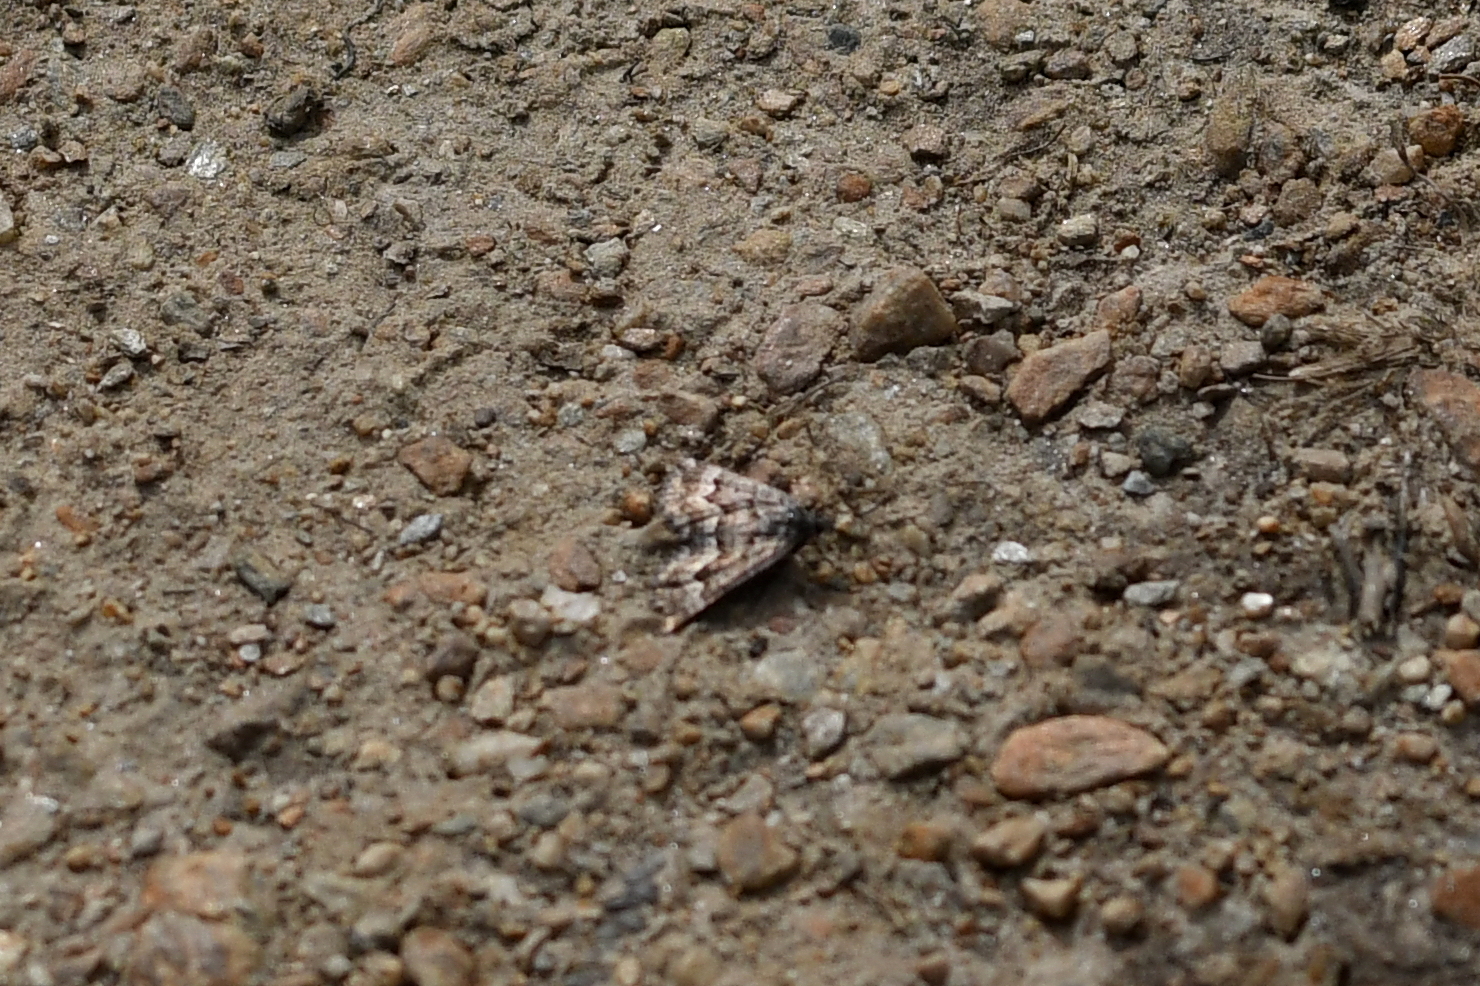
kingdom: Animalia
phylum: Arthropoda
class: Insecta
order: Lepidoptera
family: Geometridae
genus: Aponotoreas
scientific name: Aponotoreas anthracias
